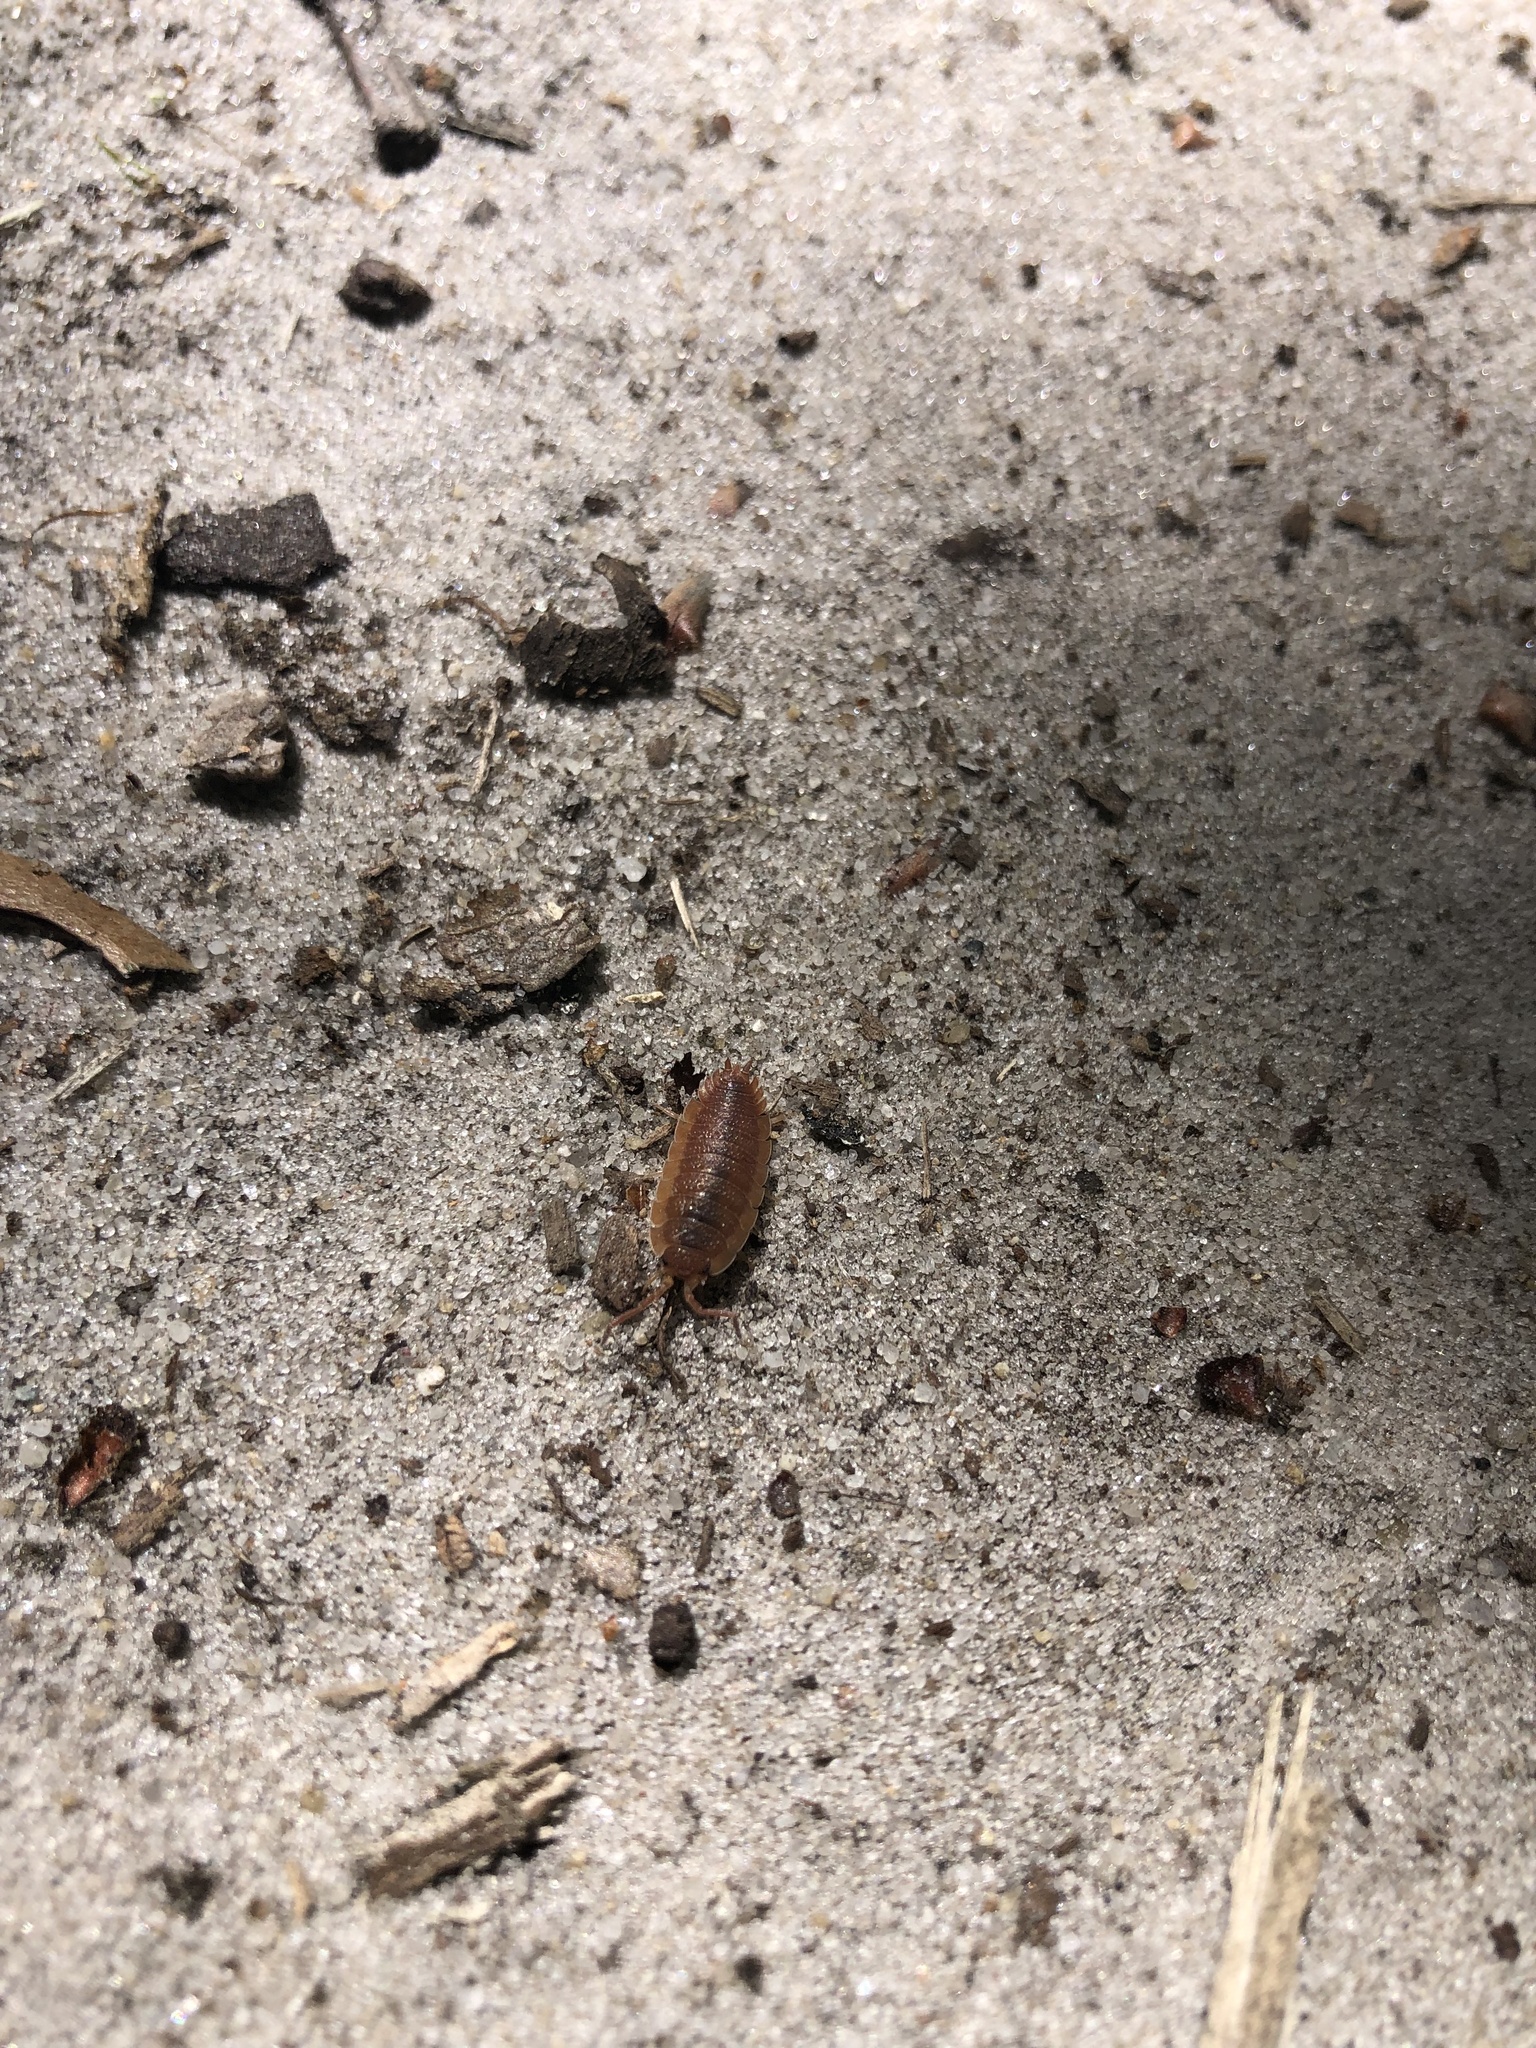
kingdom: Animalia
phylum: Arthropoda
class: Malacostraca
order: Isopoda
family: Porcellionidae
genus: Porcellio
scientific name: Porcellio scaber
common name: Common rough woodlouse
